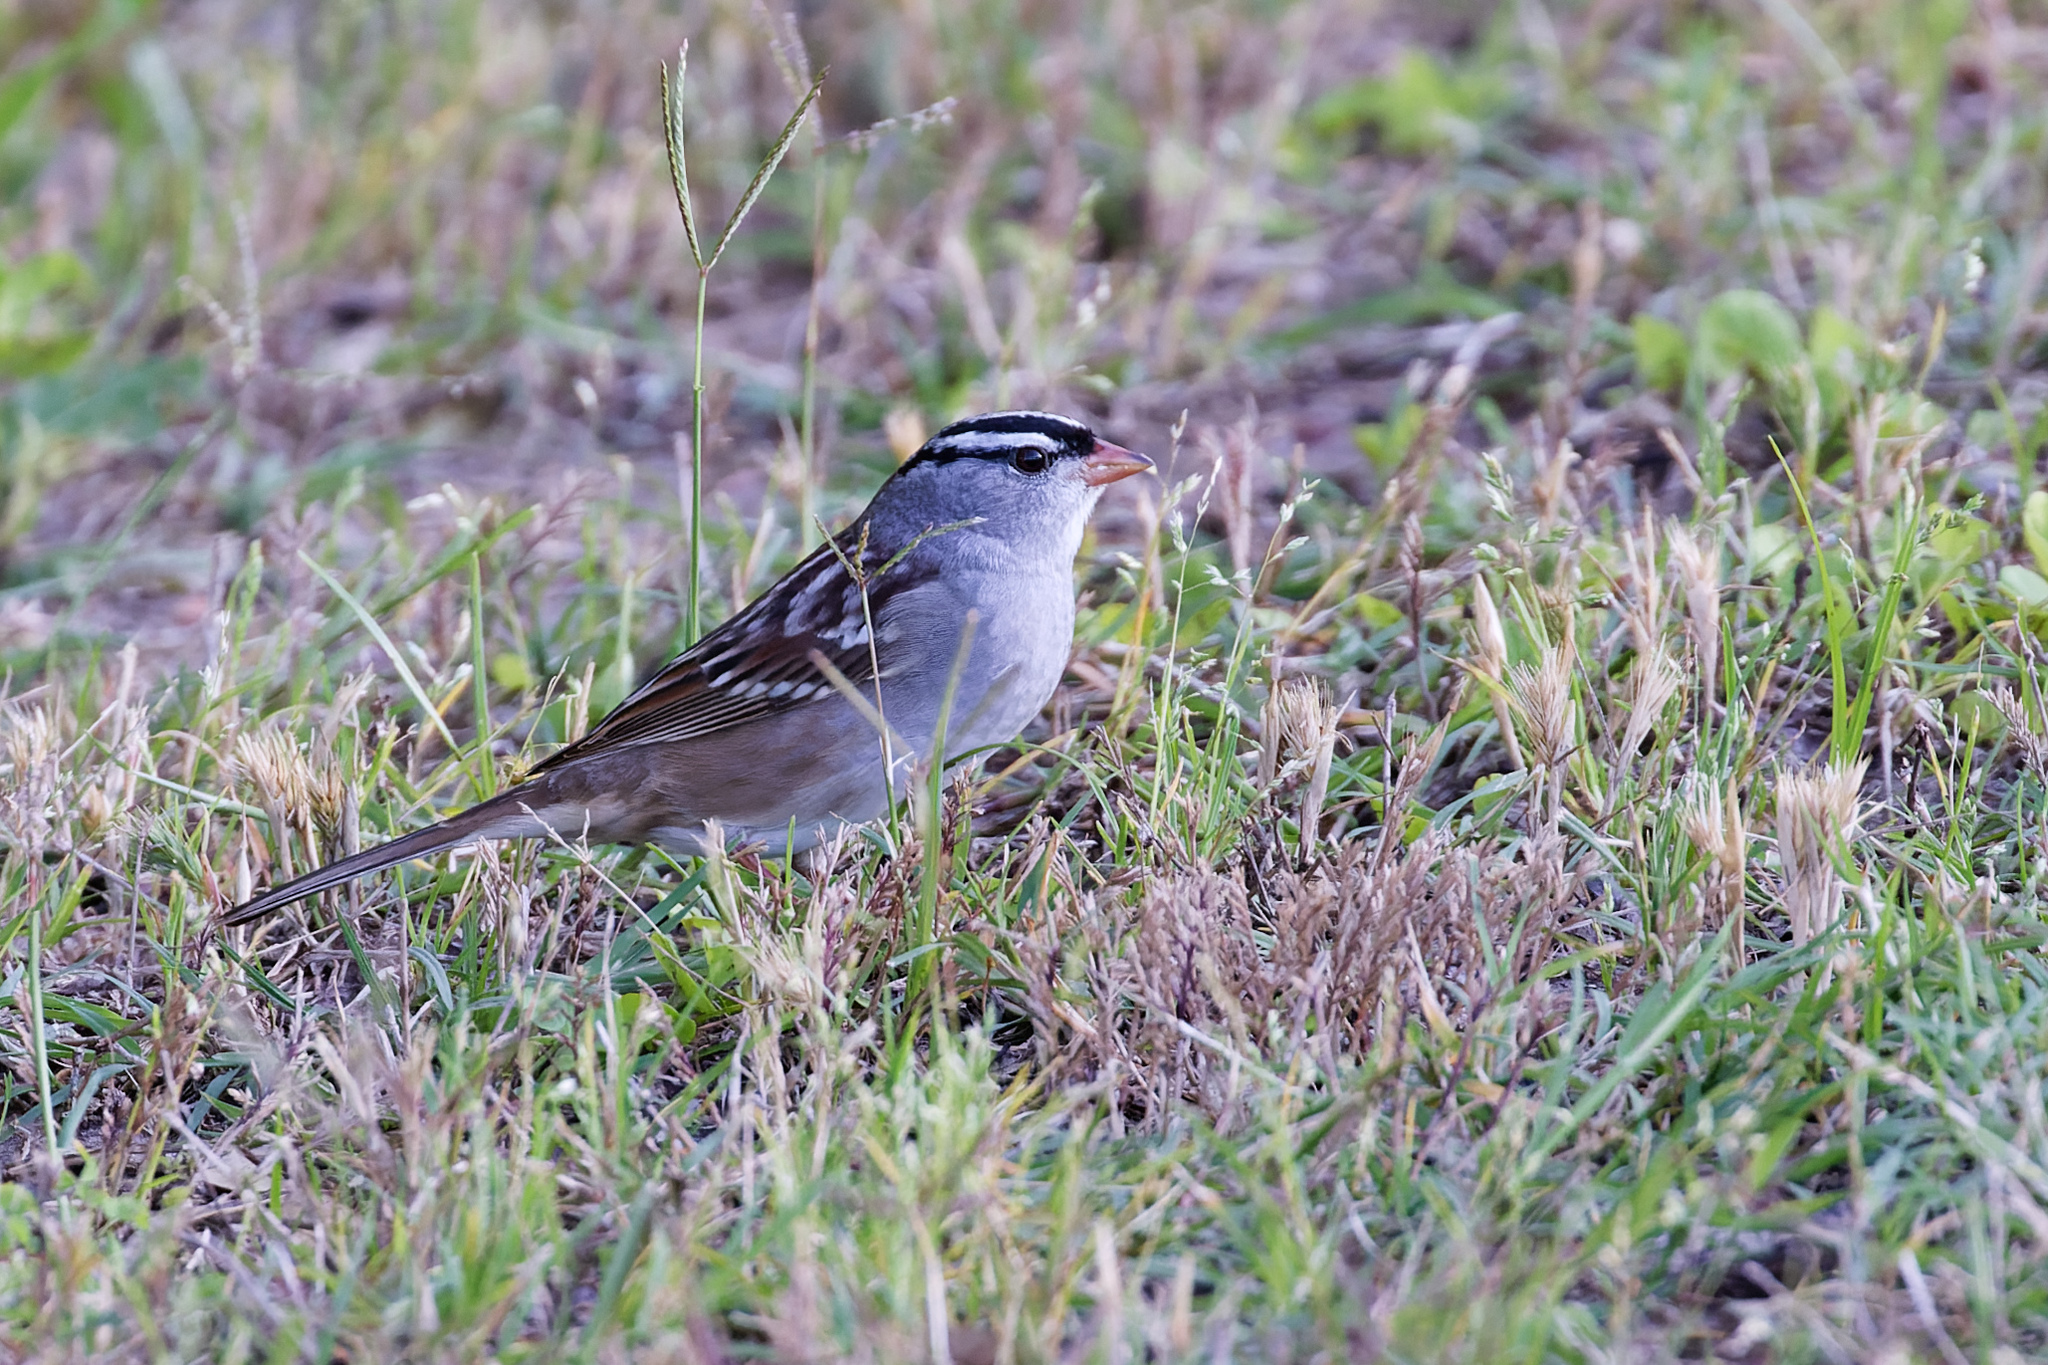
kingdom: Animalia
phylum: Chordata
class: Aves
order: Passeriformes
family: Passerellidae
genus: Zonotrichia
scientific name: Zonotrichia leucophrys
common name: White-crowned sparrow
